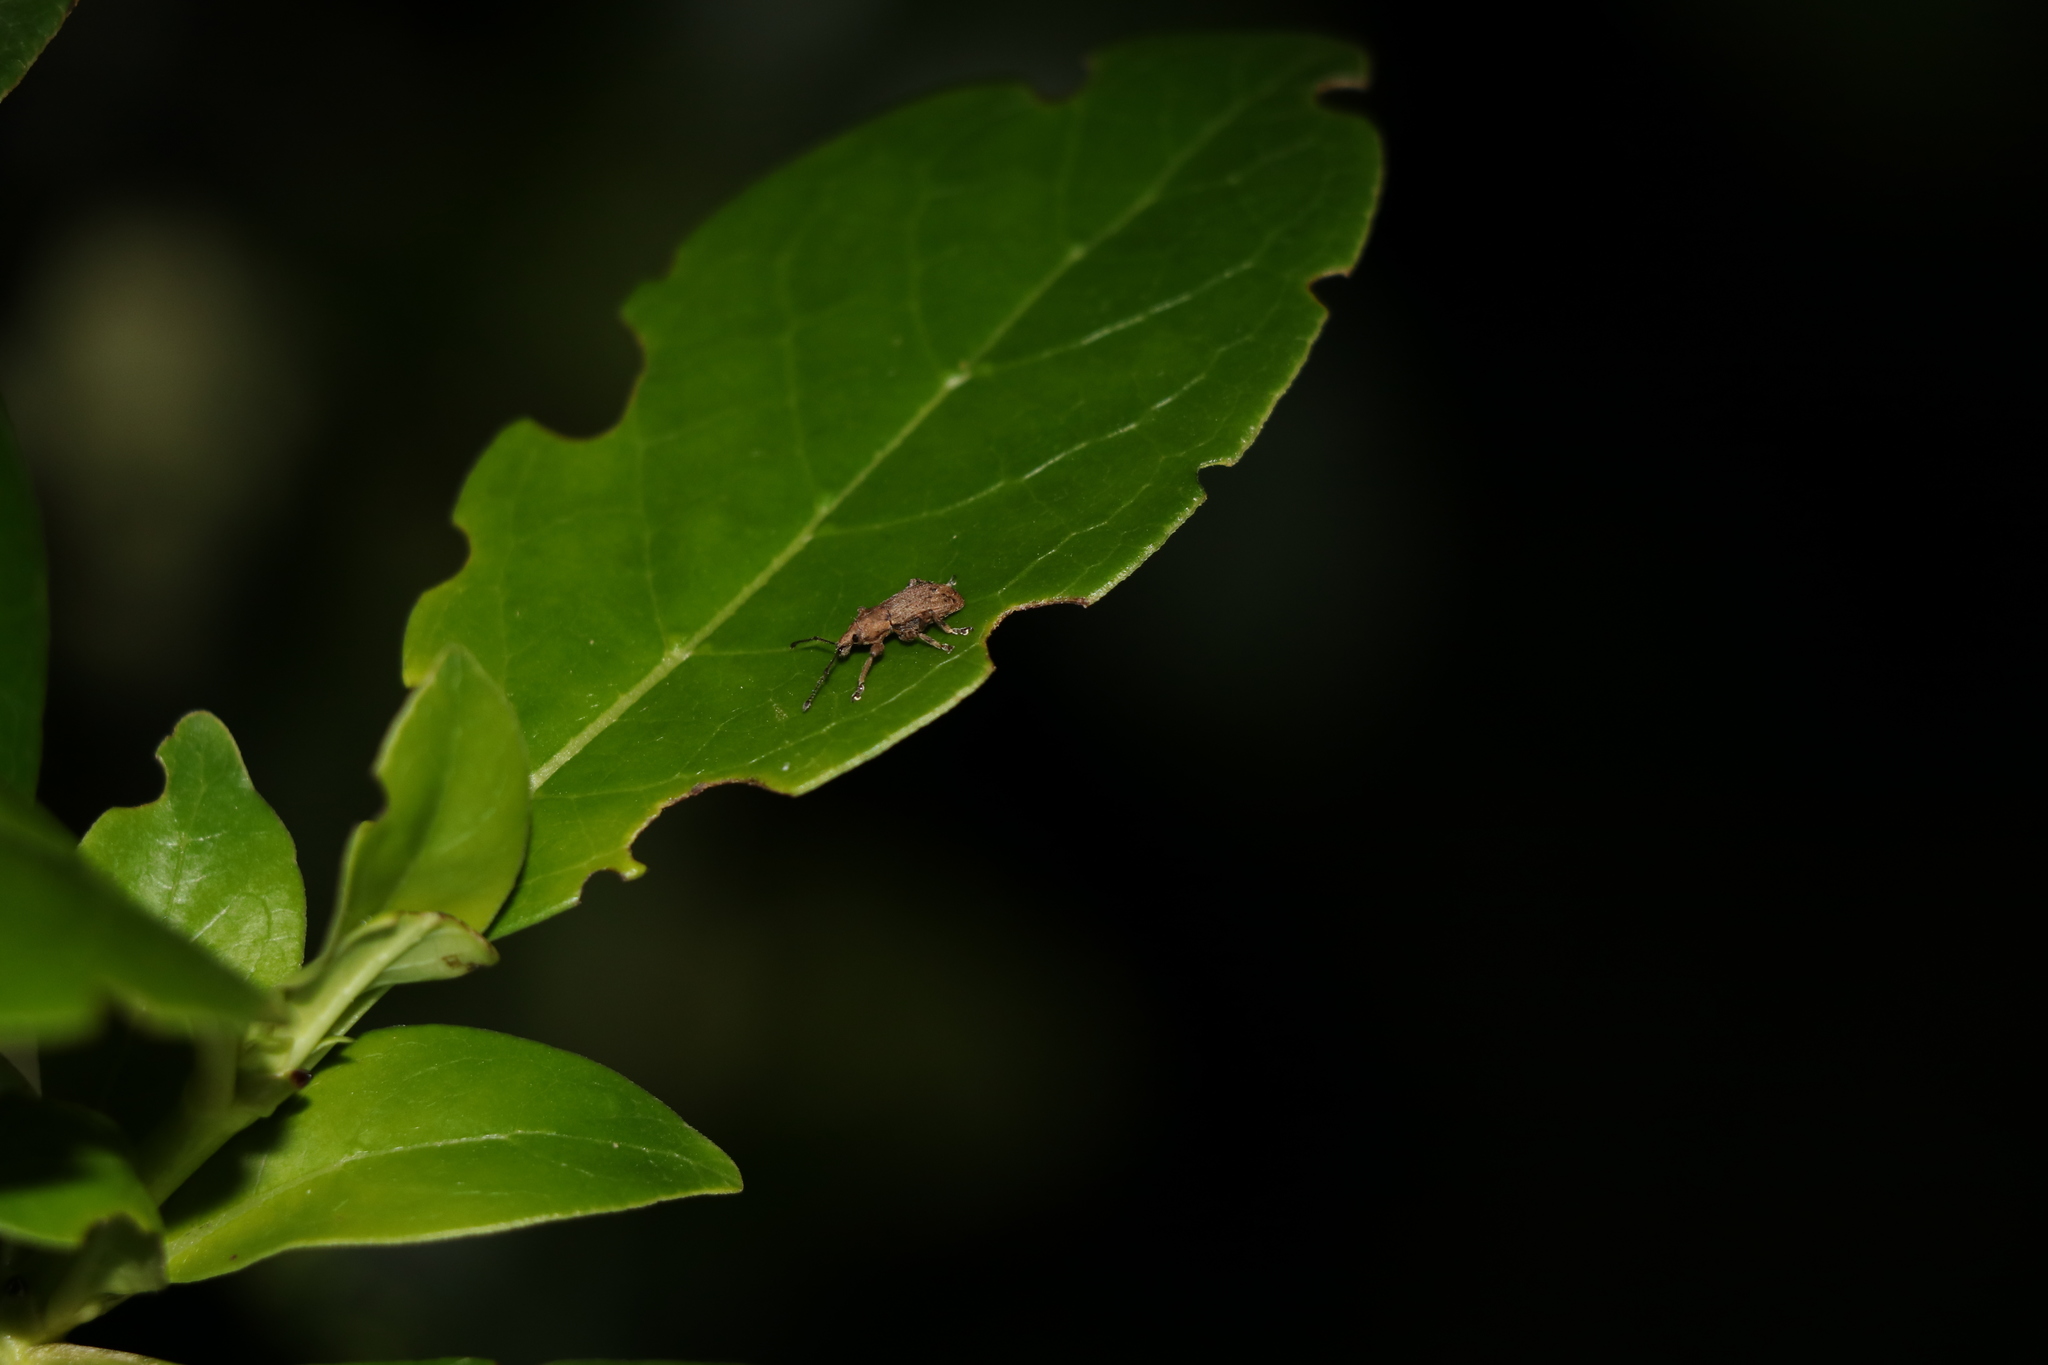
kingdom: Animalia
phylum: Arthropoda
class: Insecta
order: Coleoptera
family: Curculionidae
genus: Chalepistes
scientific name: Chalepistes compressus
